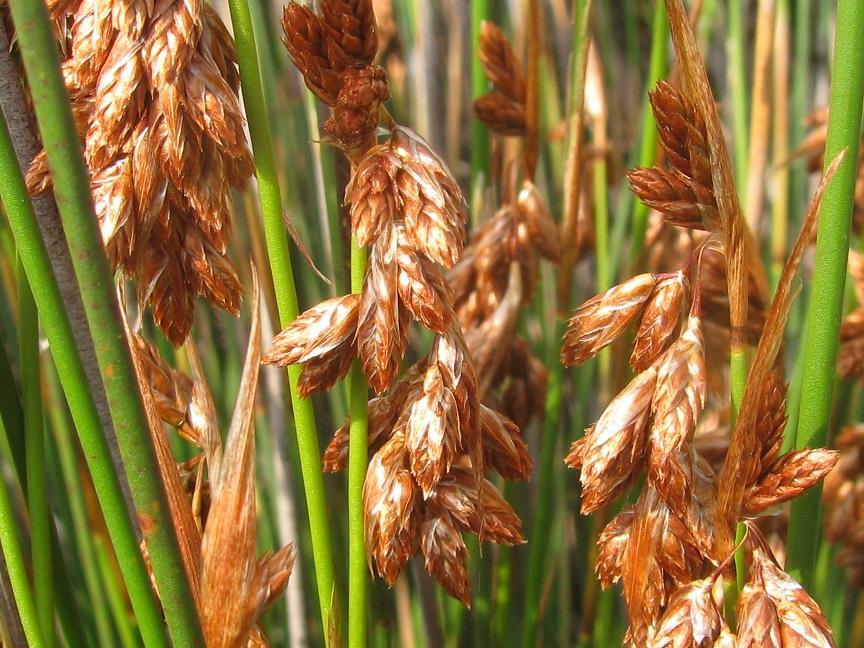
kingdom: Plantae
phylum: Tracheophyta
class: Liliopsida
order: Poales
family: Restionaceae
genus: Thamnochortus
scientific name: Thamnochortus platypteris
